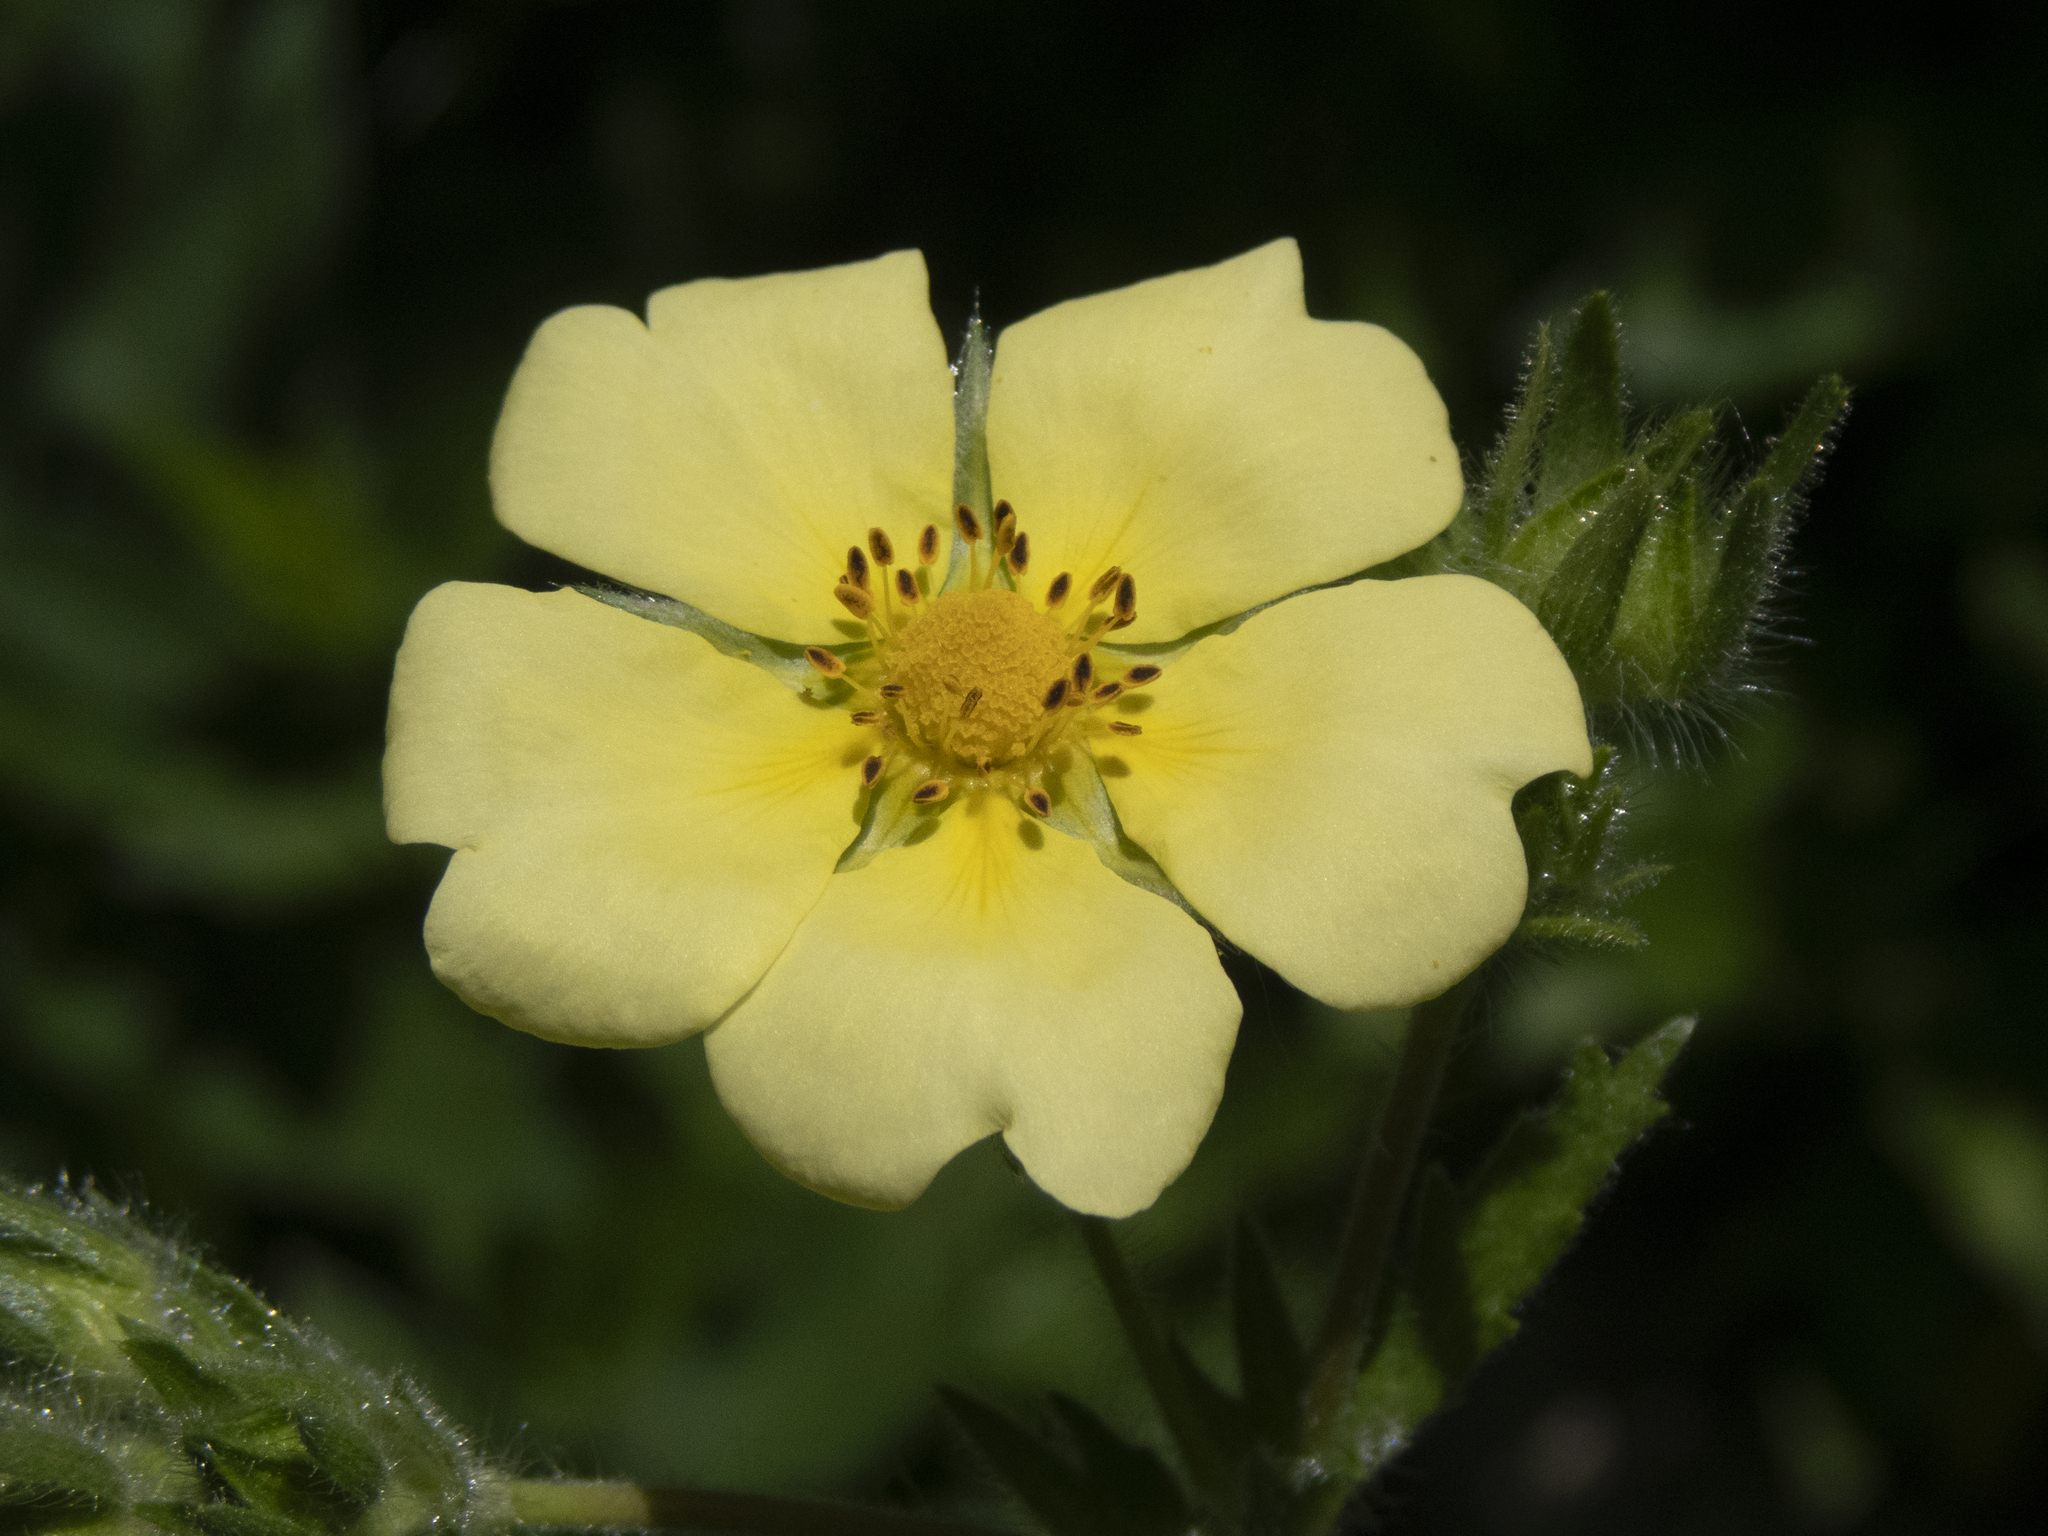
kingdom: Plantae
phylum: Tracheophyta
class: Magnoliopsida
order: Rosales
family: Rosaceae
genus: Potentilla
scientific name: Potentilla recta
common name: Sulphur cinquefoil
